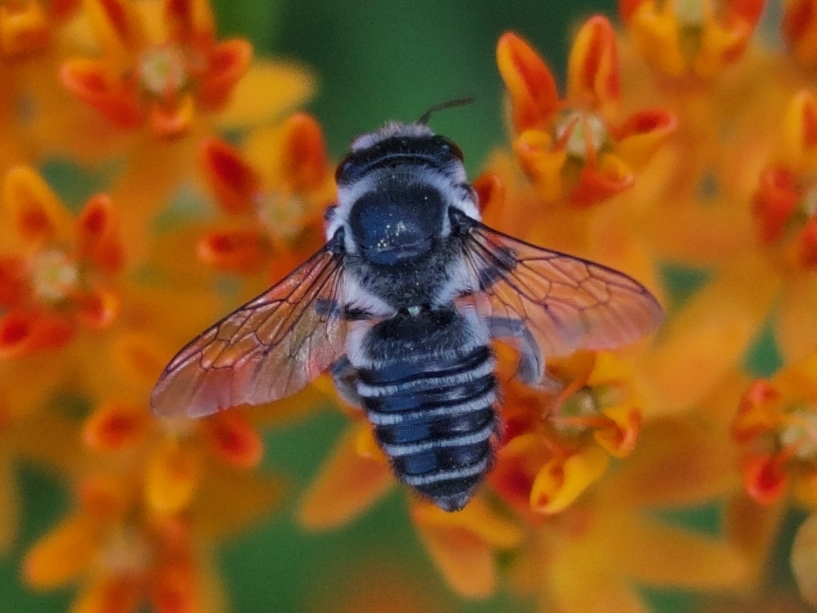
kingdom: Animalia
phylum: Arthropoda
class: Insecta
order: Hymenoptera
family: Megachilidae
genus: Megachile
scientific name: Megachile
